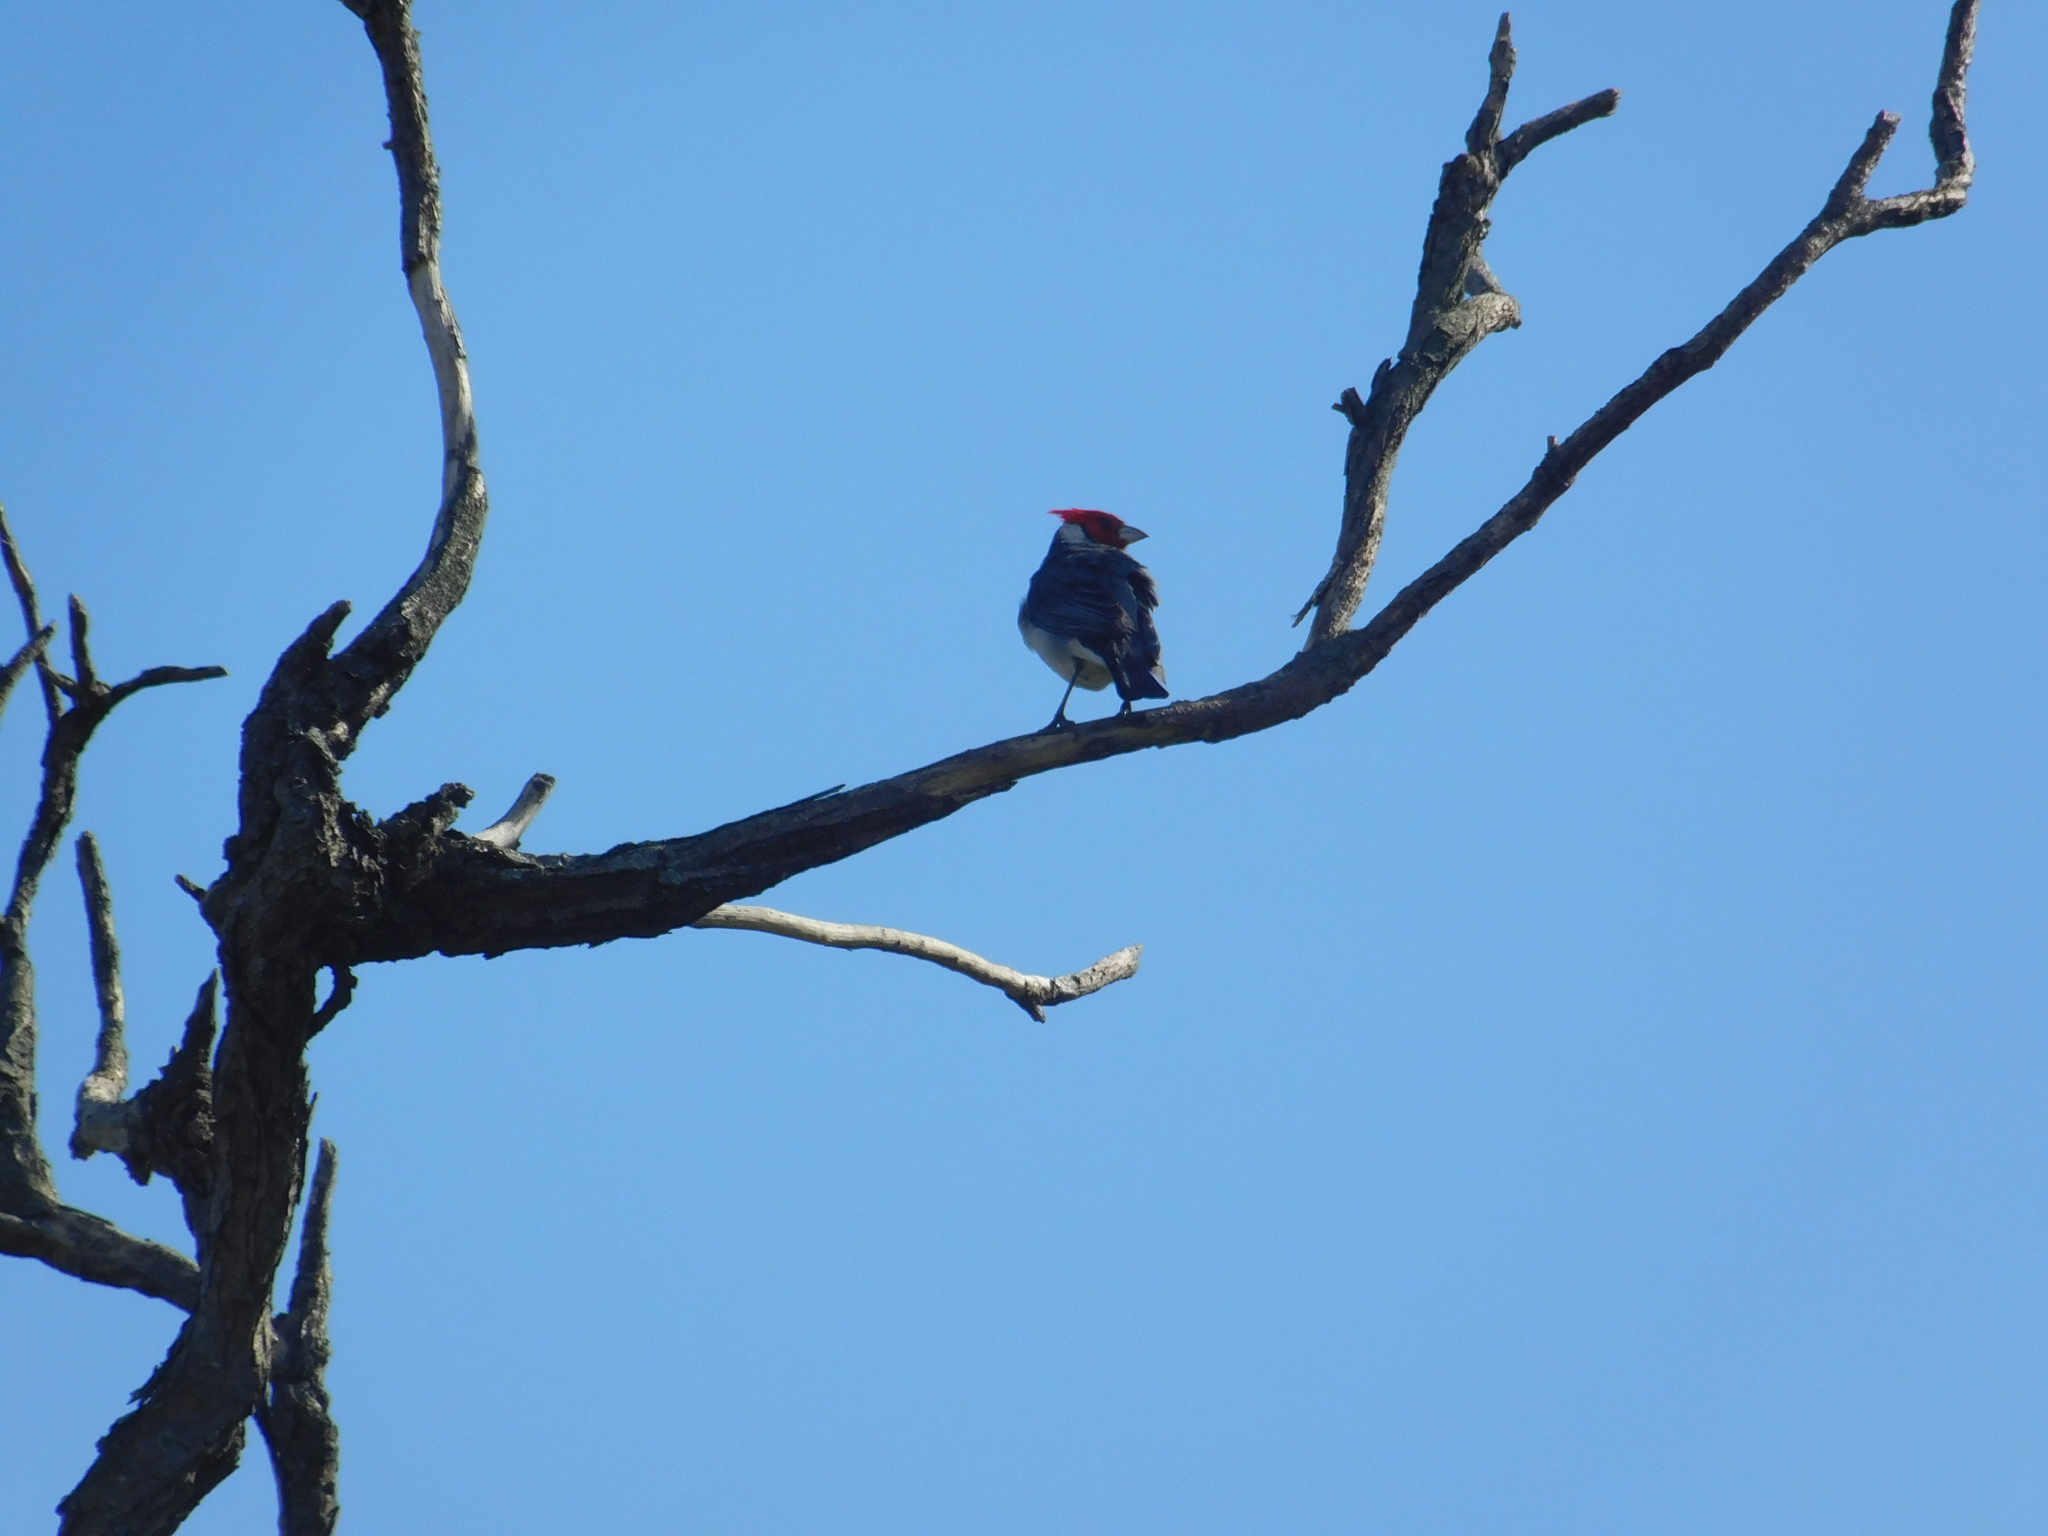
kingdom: Animalia
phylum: Chordata
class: Aves
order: Passeriformes
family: Thraupidae
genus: Paroaria
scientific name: Paroaria coronata
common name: Red-crested cardinal
